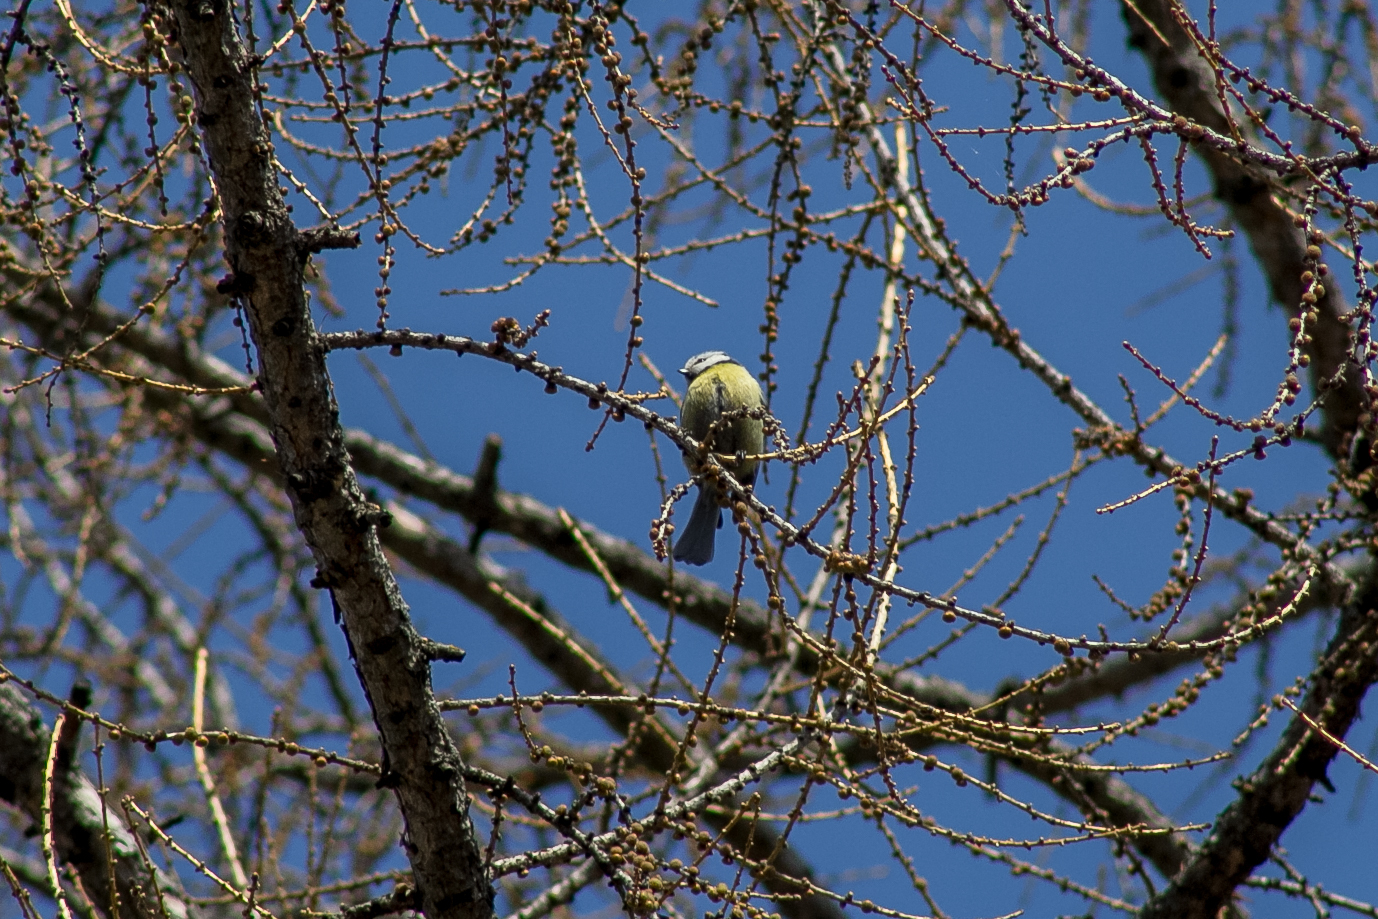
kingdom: Animalia
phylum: Chordata
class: Aves
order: Passeriformes
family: Paridae
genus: Cyanistes
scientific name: Cyanistes caeruleus
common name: Eurasian blue tit
